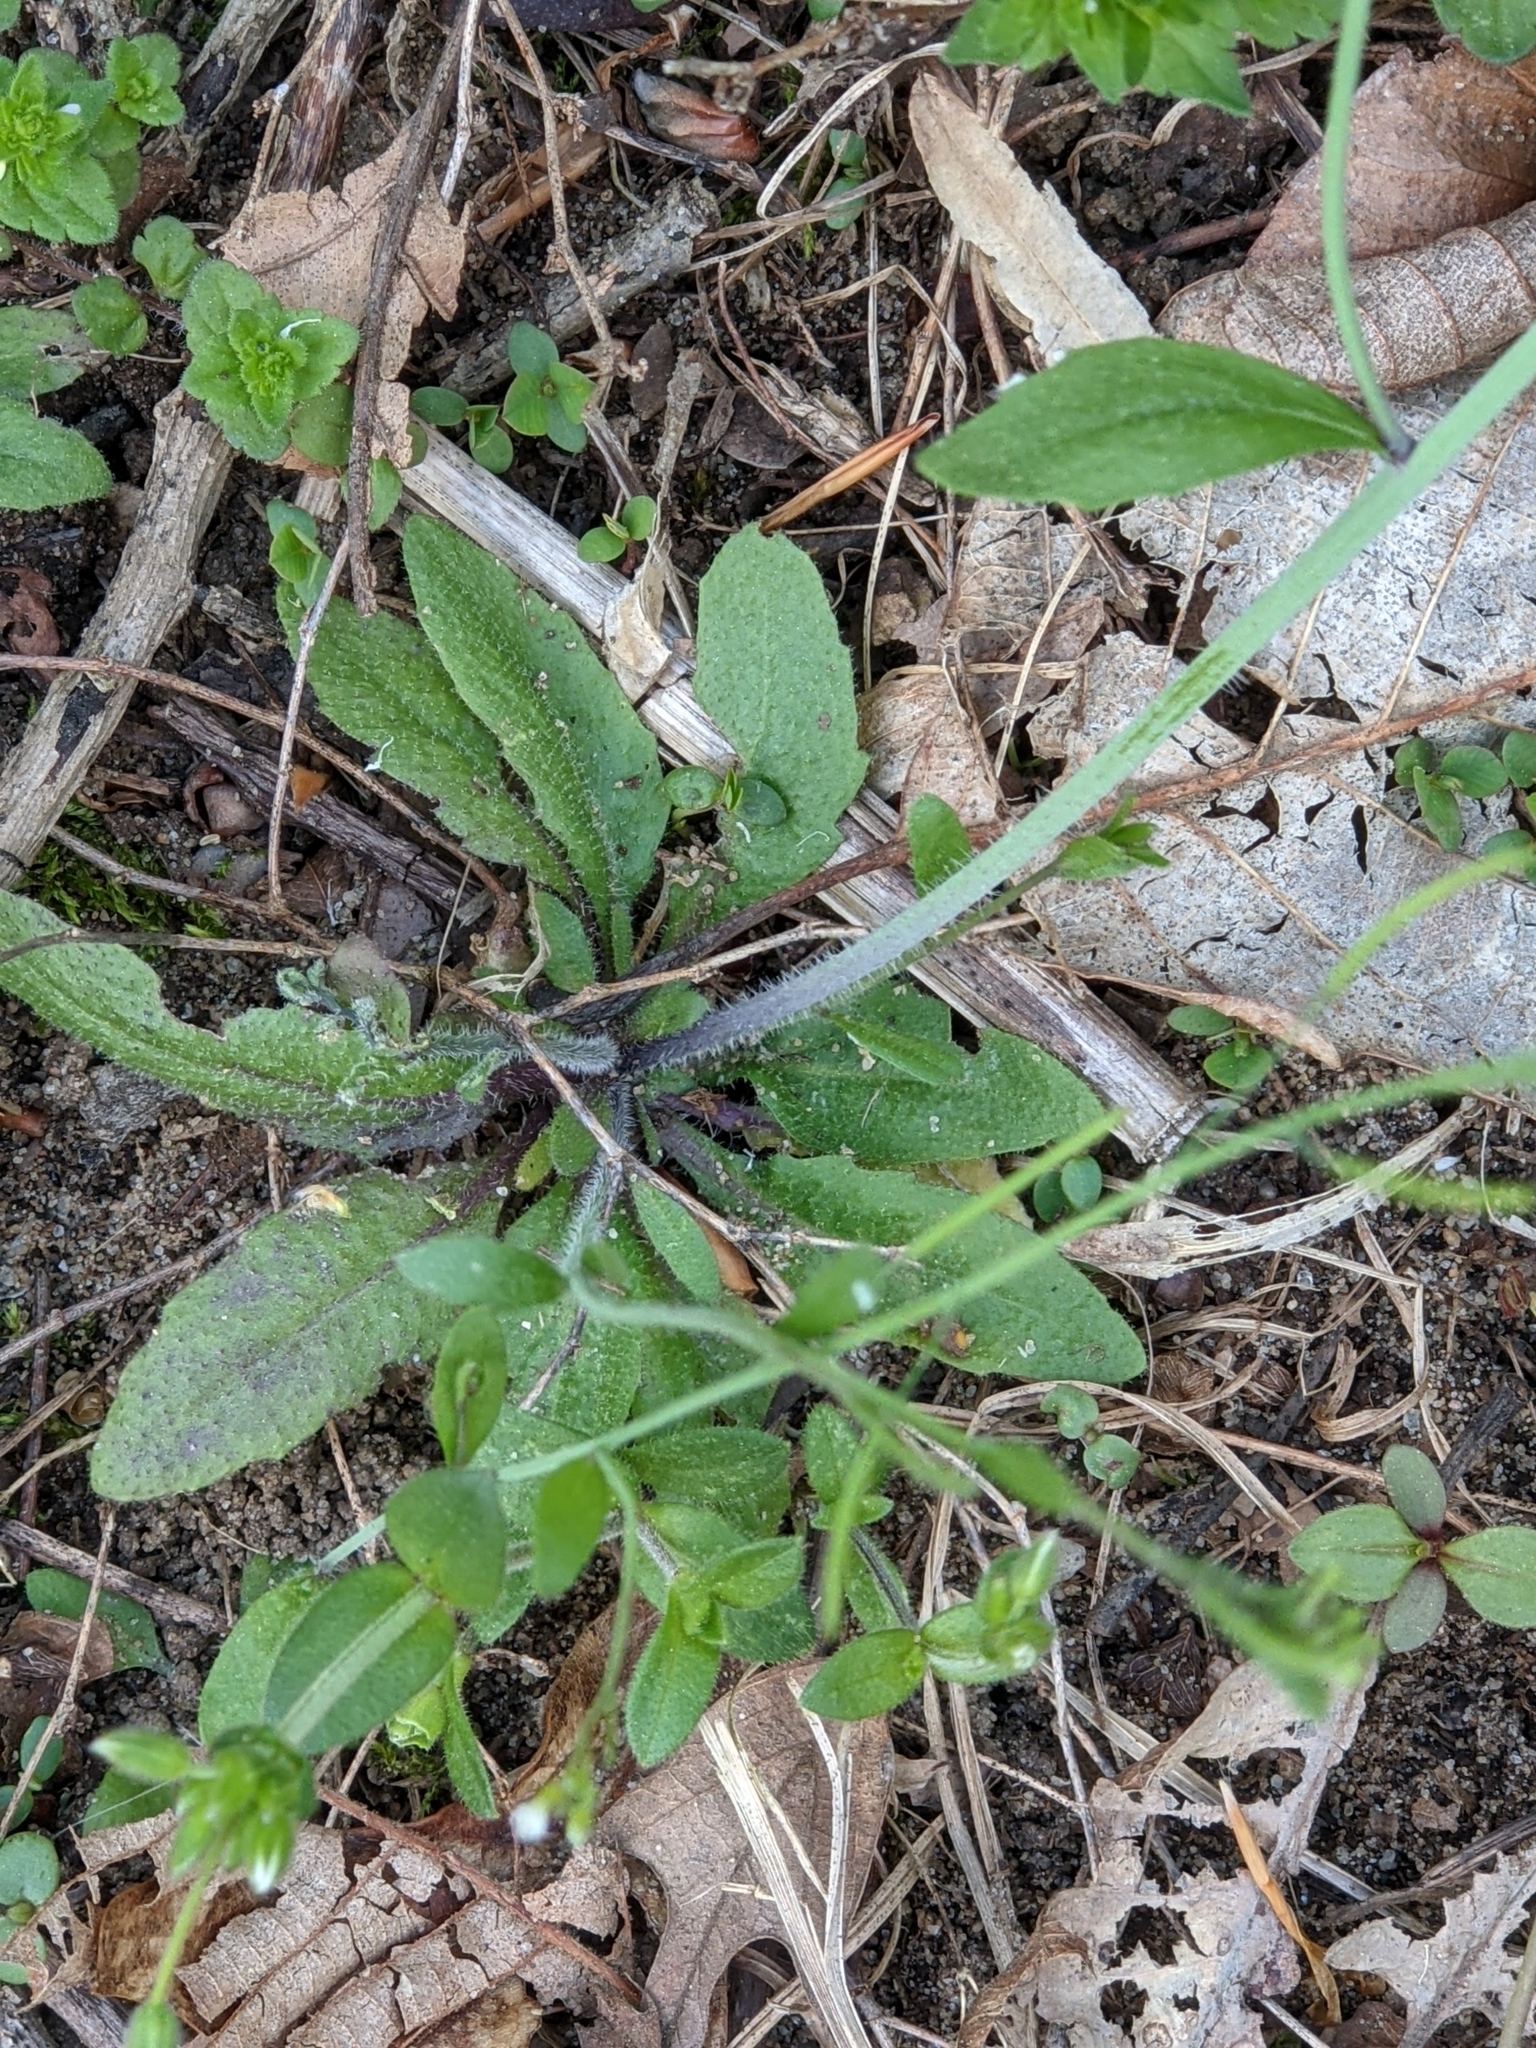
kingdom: Plantae
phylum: Tracheophyta
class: Magnoliopsida
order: Brassicales
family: Brassicaceae
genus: Arabidopsis
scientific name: Arabidopsis thaliana
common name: Thale cress
